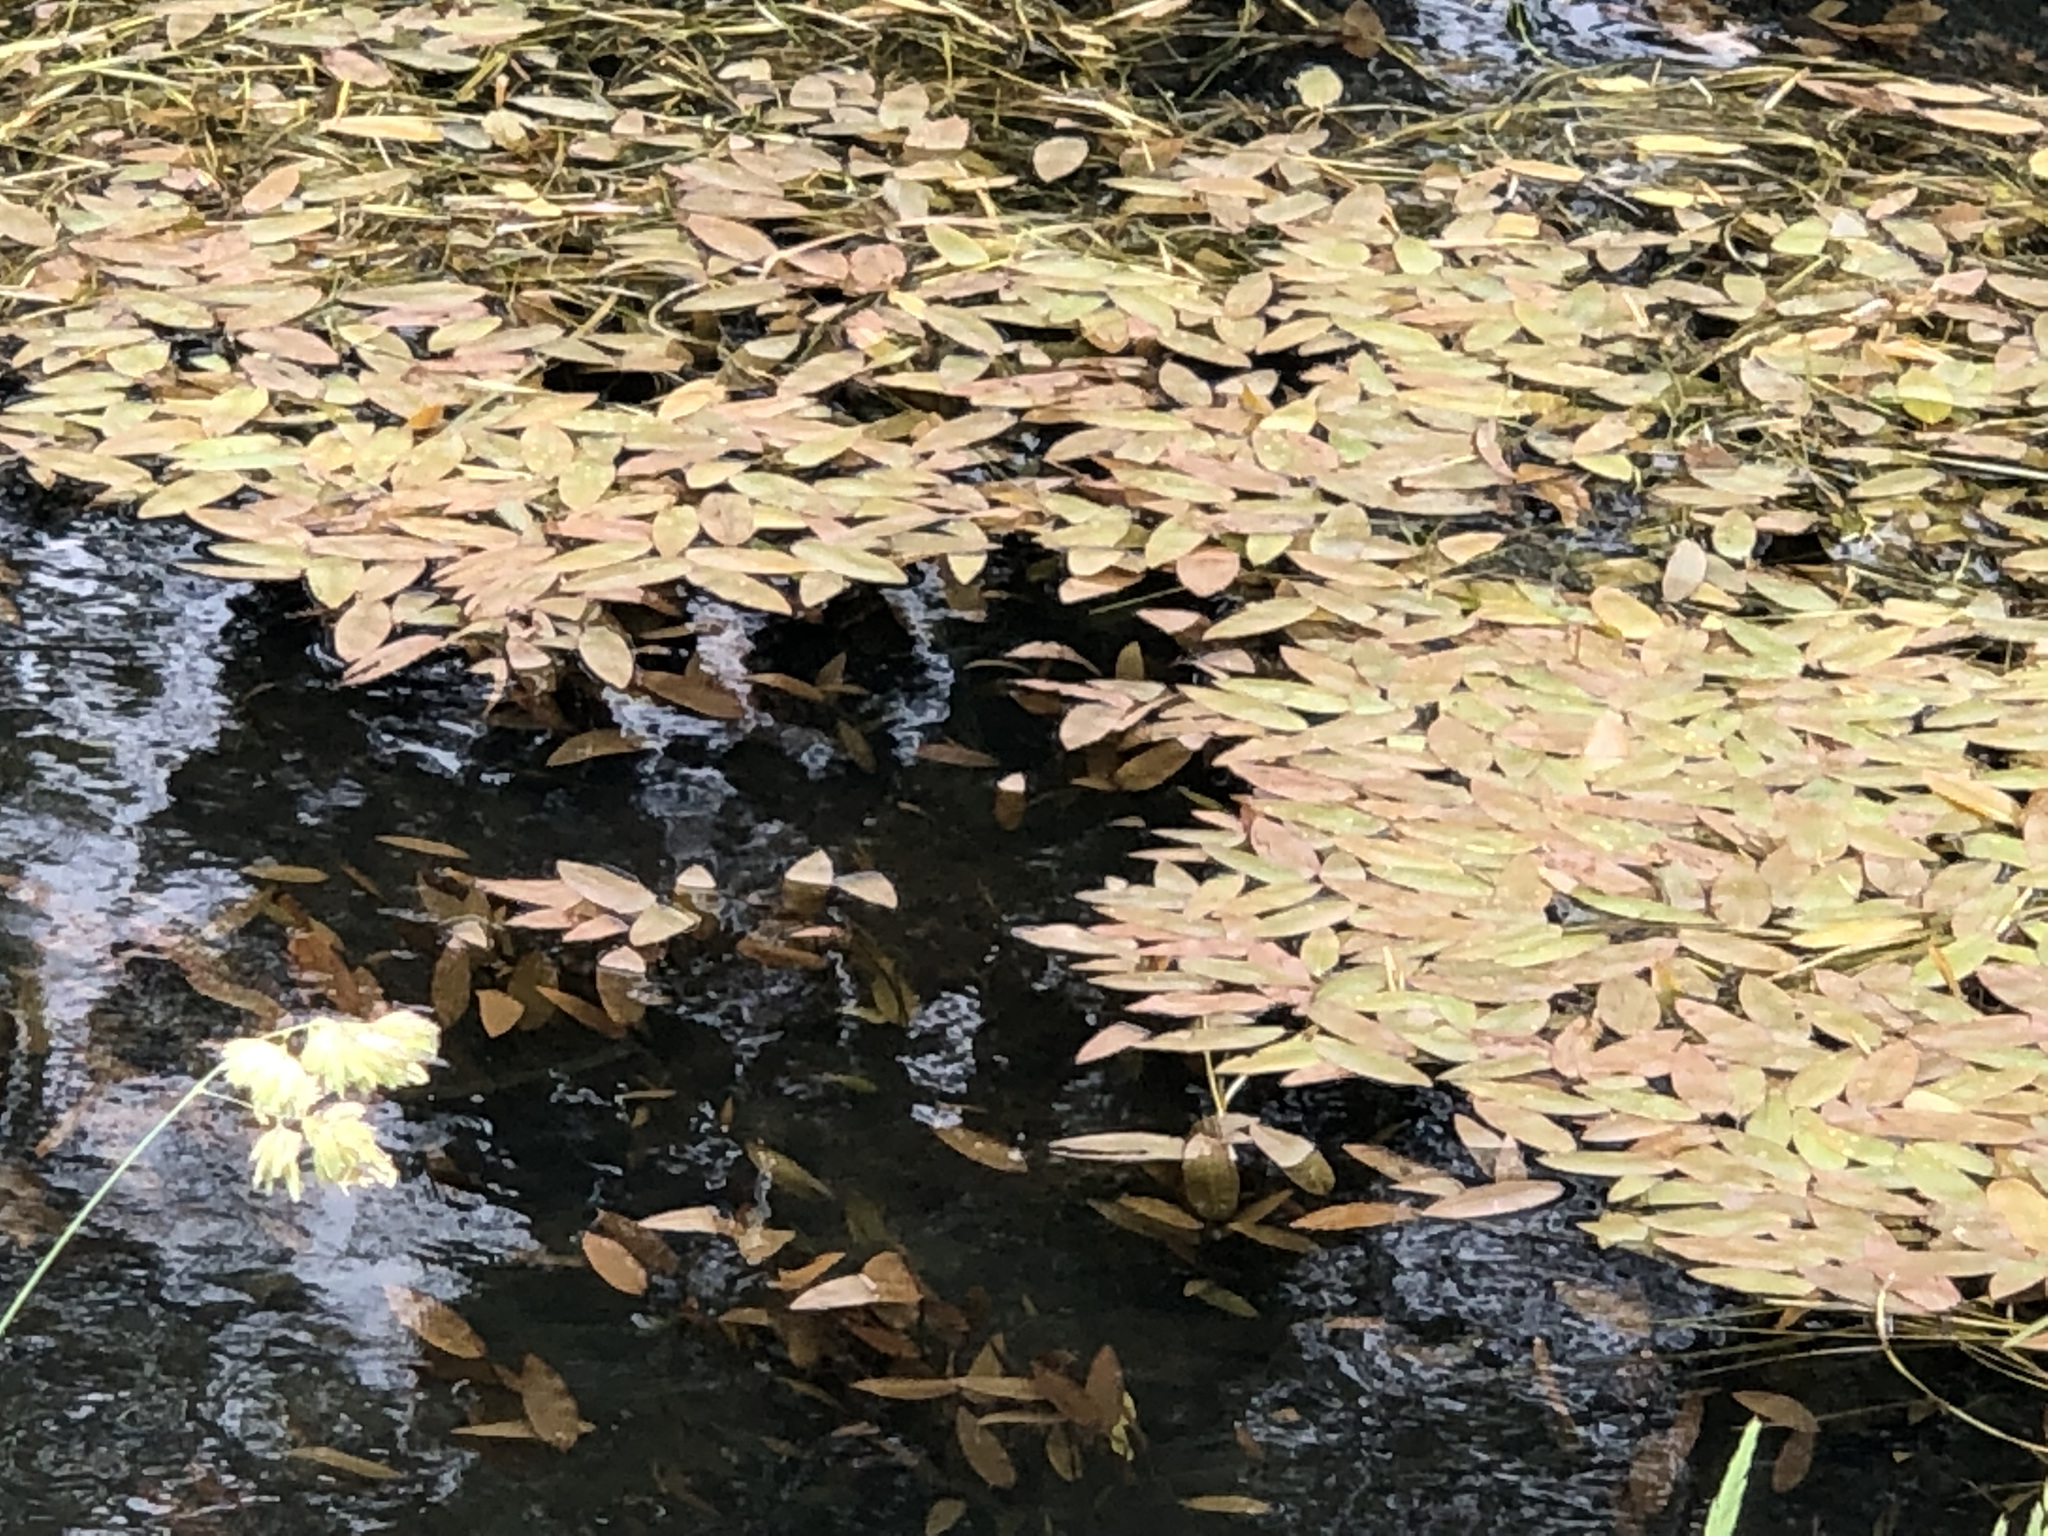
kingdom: Plantae
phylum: Tracheophyta
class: Liliopsida
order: Alismatales
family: Potamogetonaceae
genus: Potamogeton
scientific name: Potamogeton natans
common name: Broad-leaved pondweed
